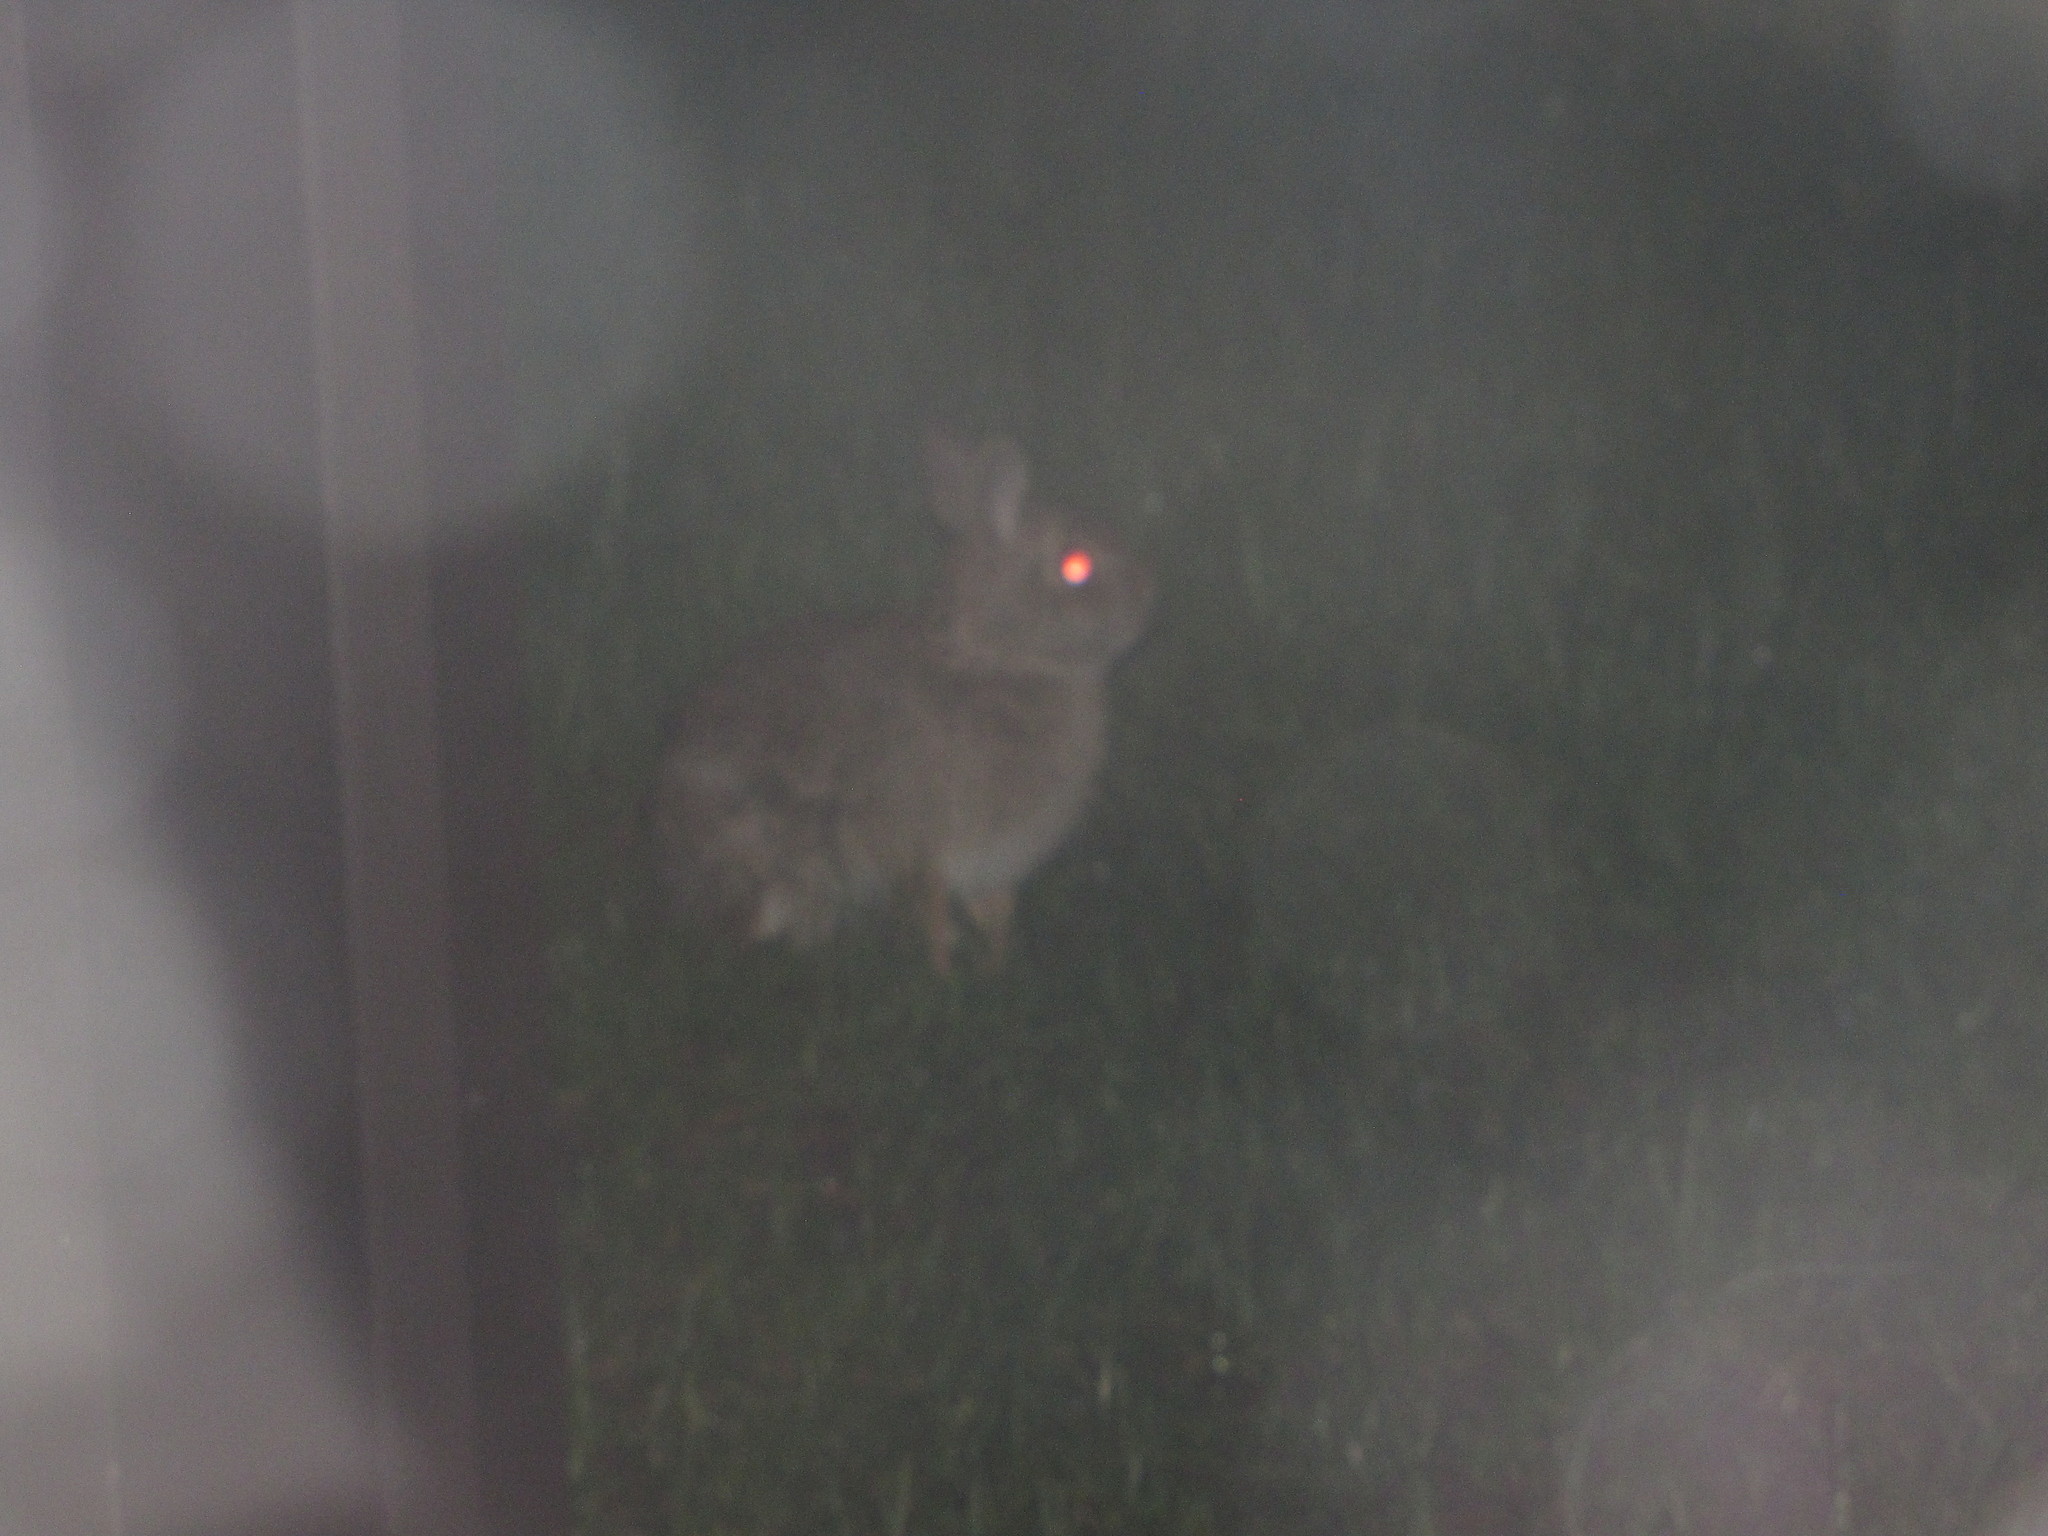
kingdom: Animalia
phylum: Chordata
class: Mammalia
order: Lagomorpha
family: Leporidae
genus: Sylvilagus
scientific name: Sylvilagus floridanus
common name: Eastern cottontail
